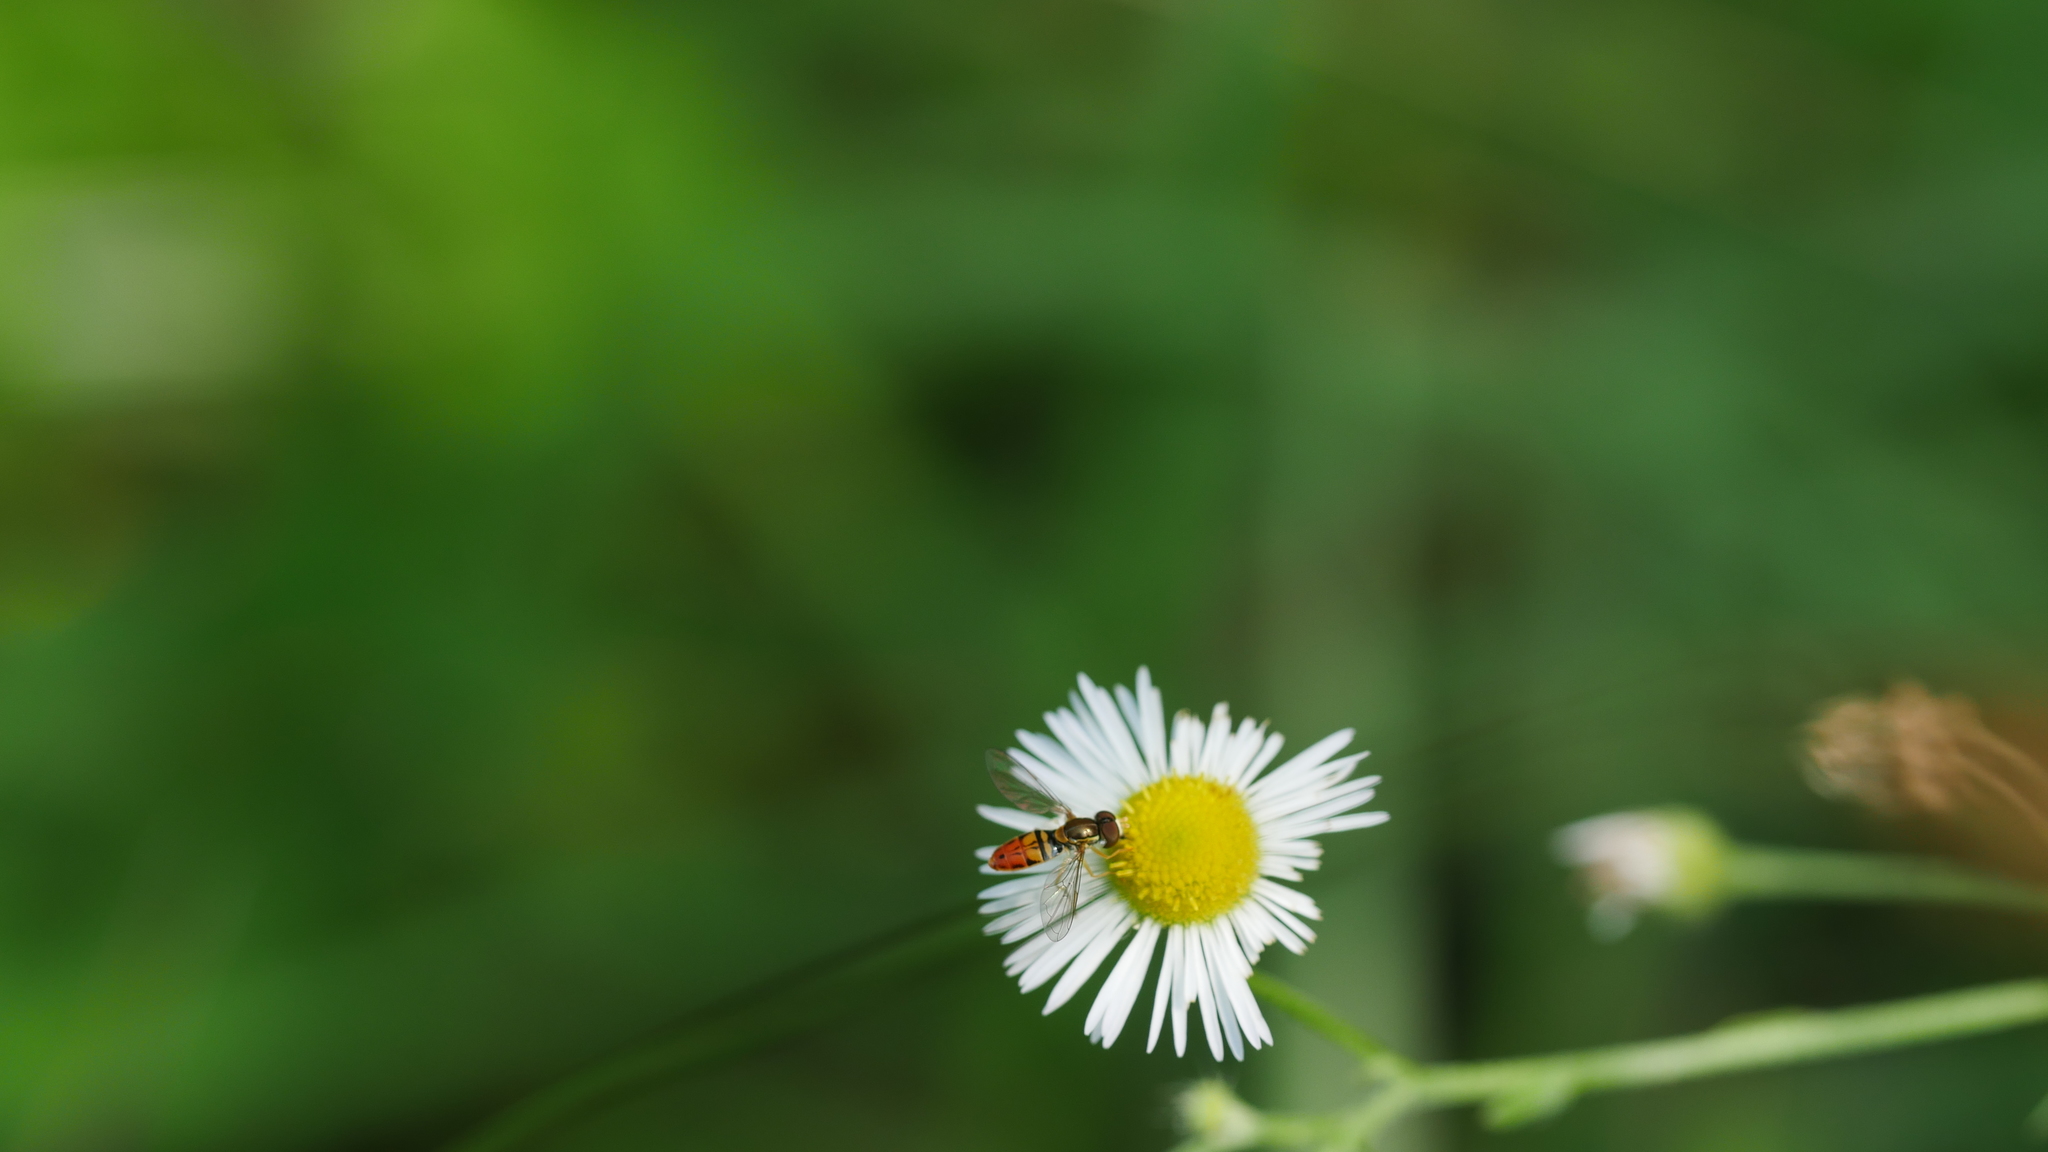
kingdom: Animalia
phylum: Arthropoda
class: Insecta
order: Diptera
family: Syrphidae
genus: Toxomerus
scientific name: Toxomerus marginatus
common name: Syrphid fly
